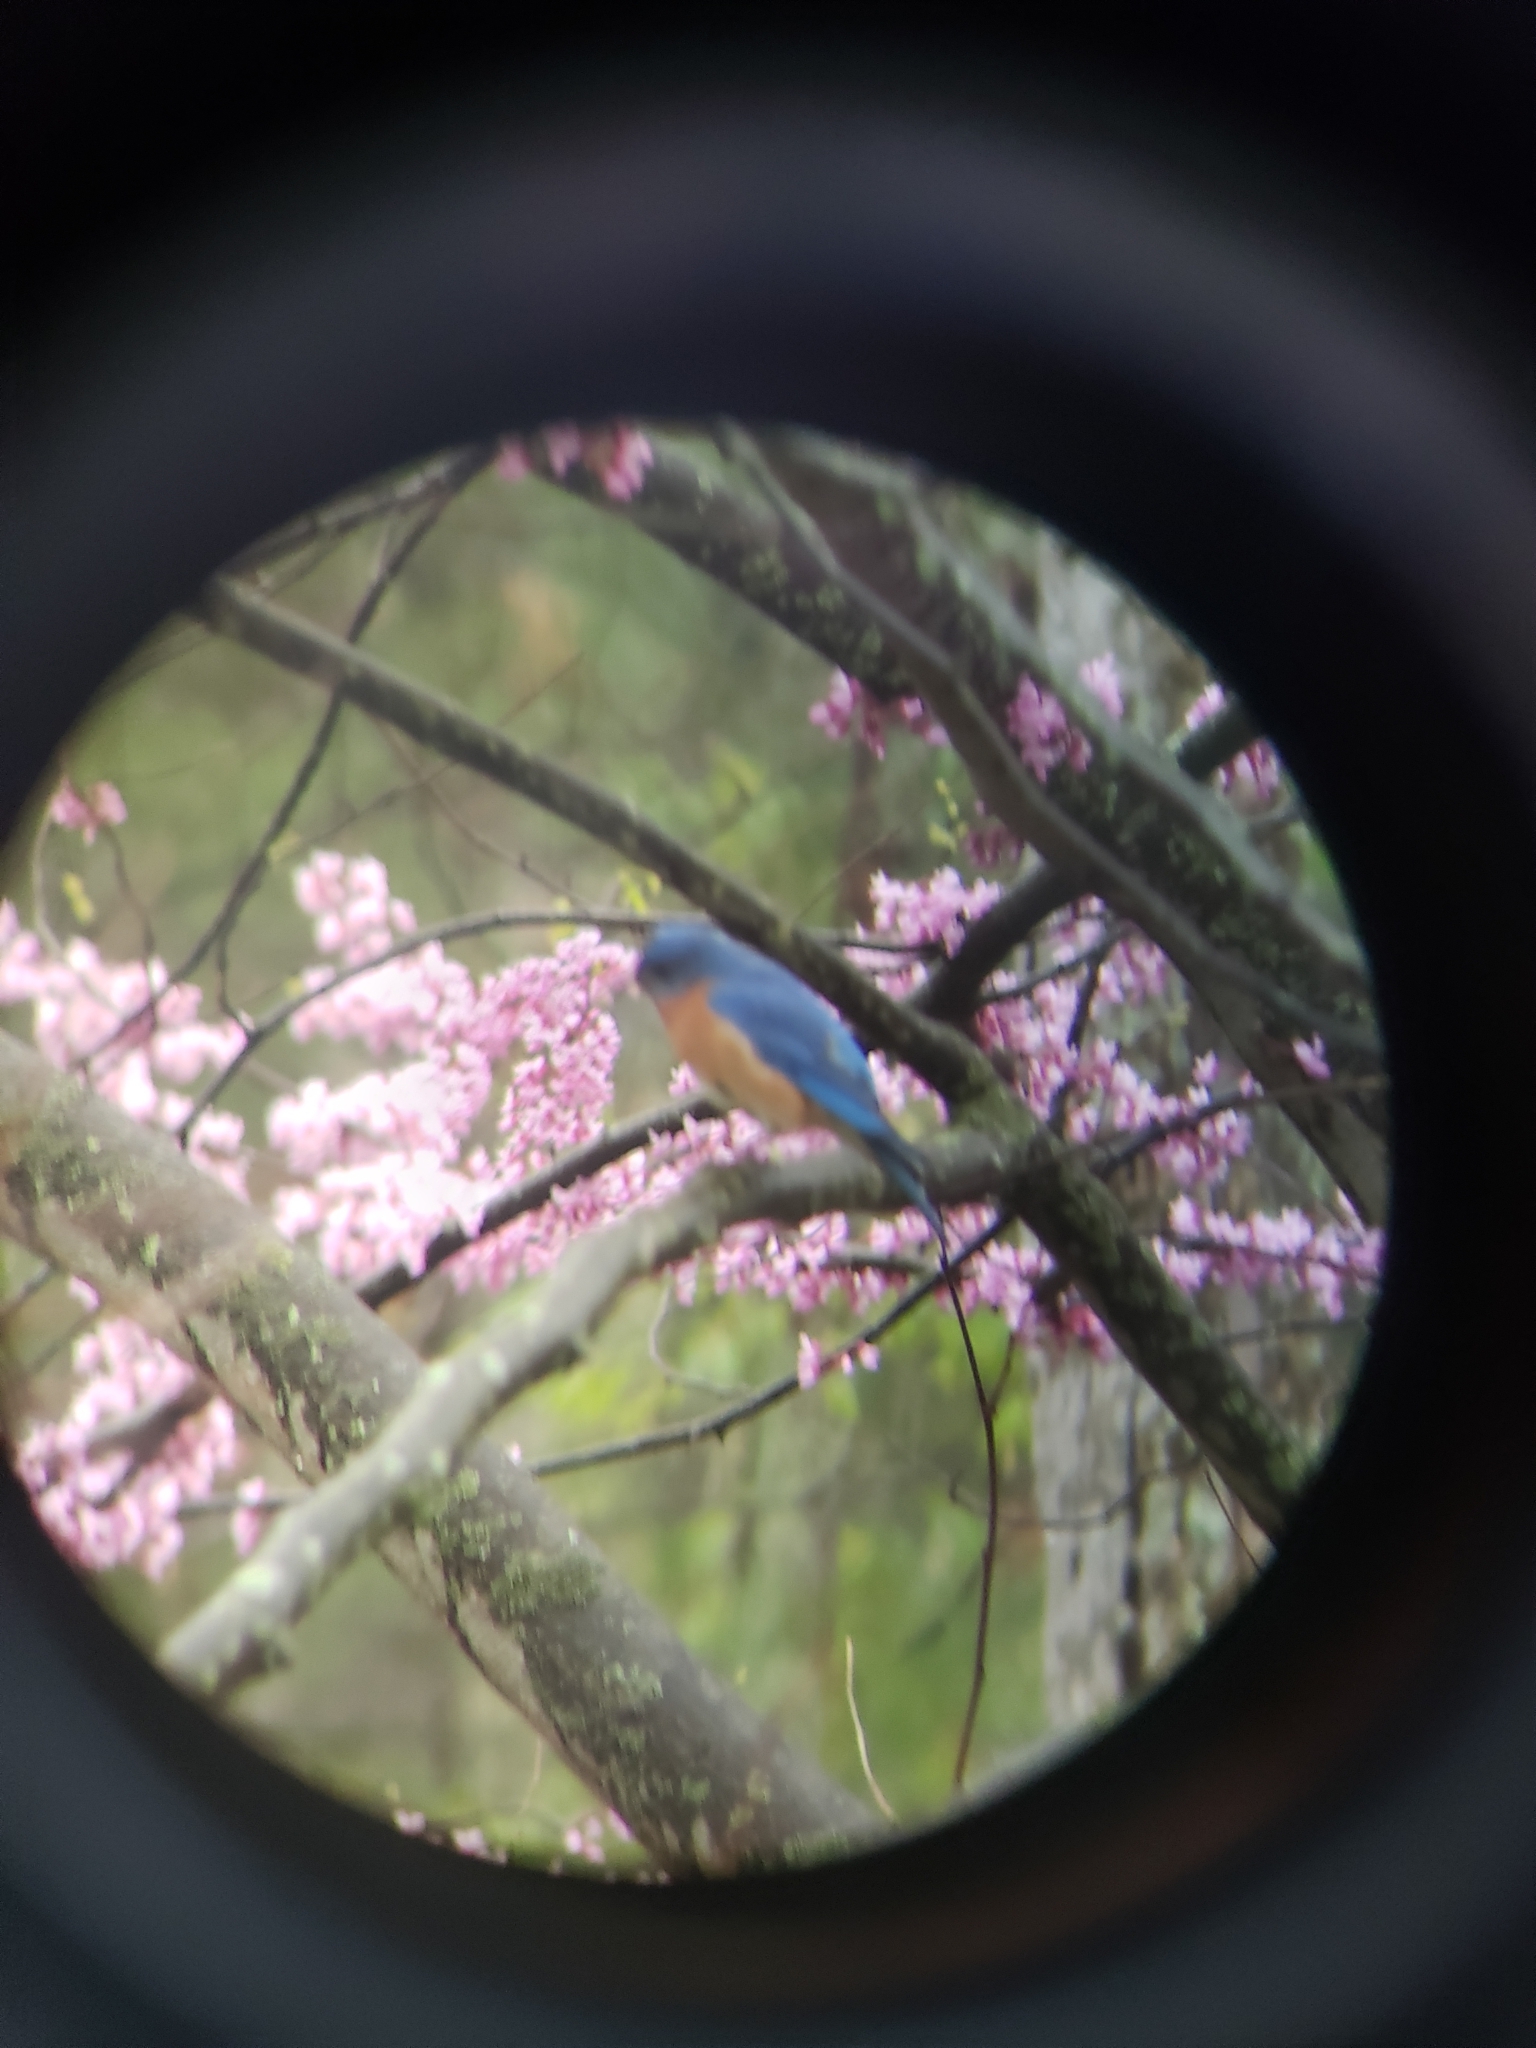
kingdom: Animalia
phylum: Chordata
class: Aves
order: Passeriformes
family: Turdidae
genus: Sialia
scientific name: Sialia sialis
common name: Eastern bluebird
